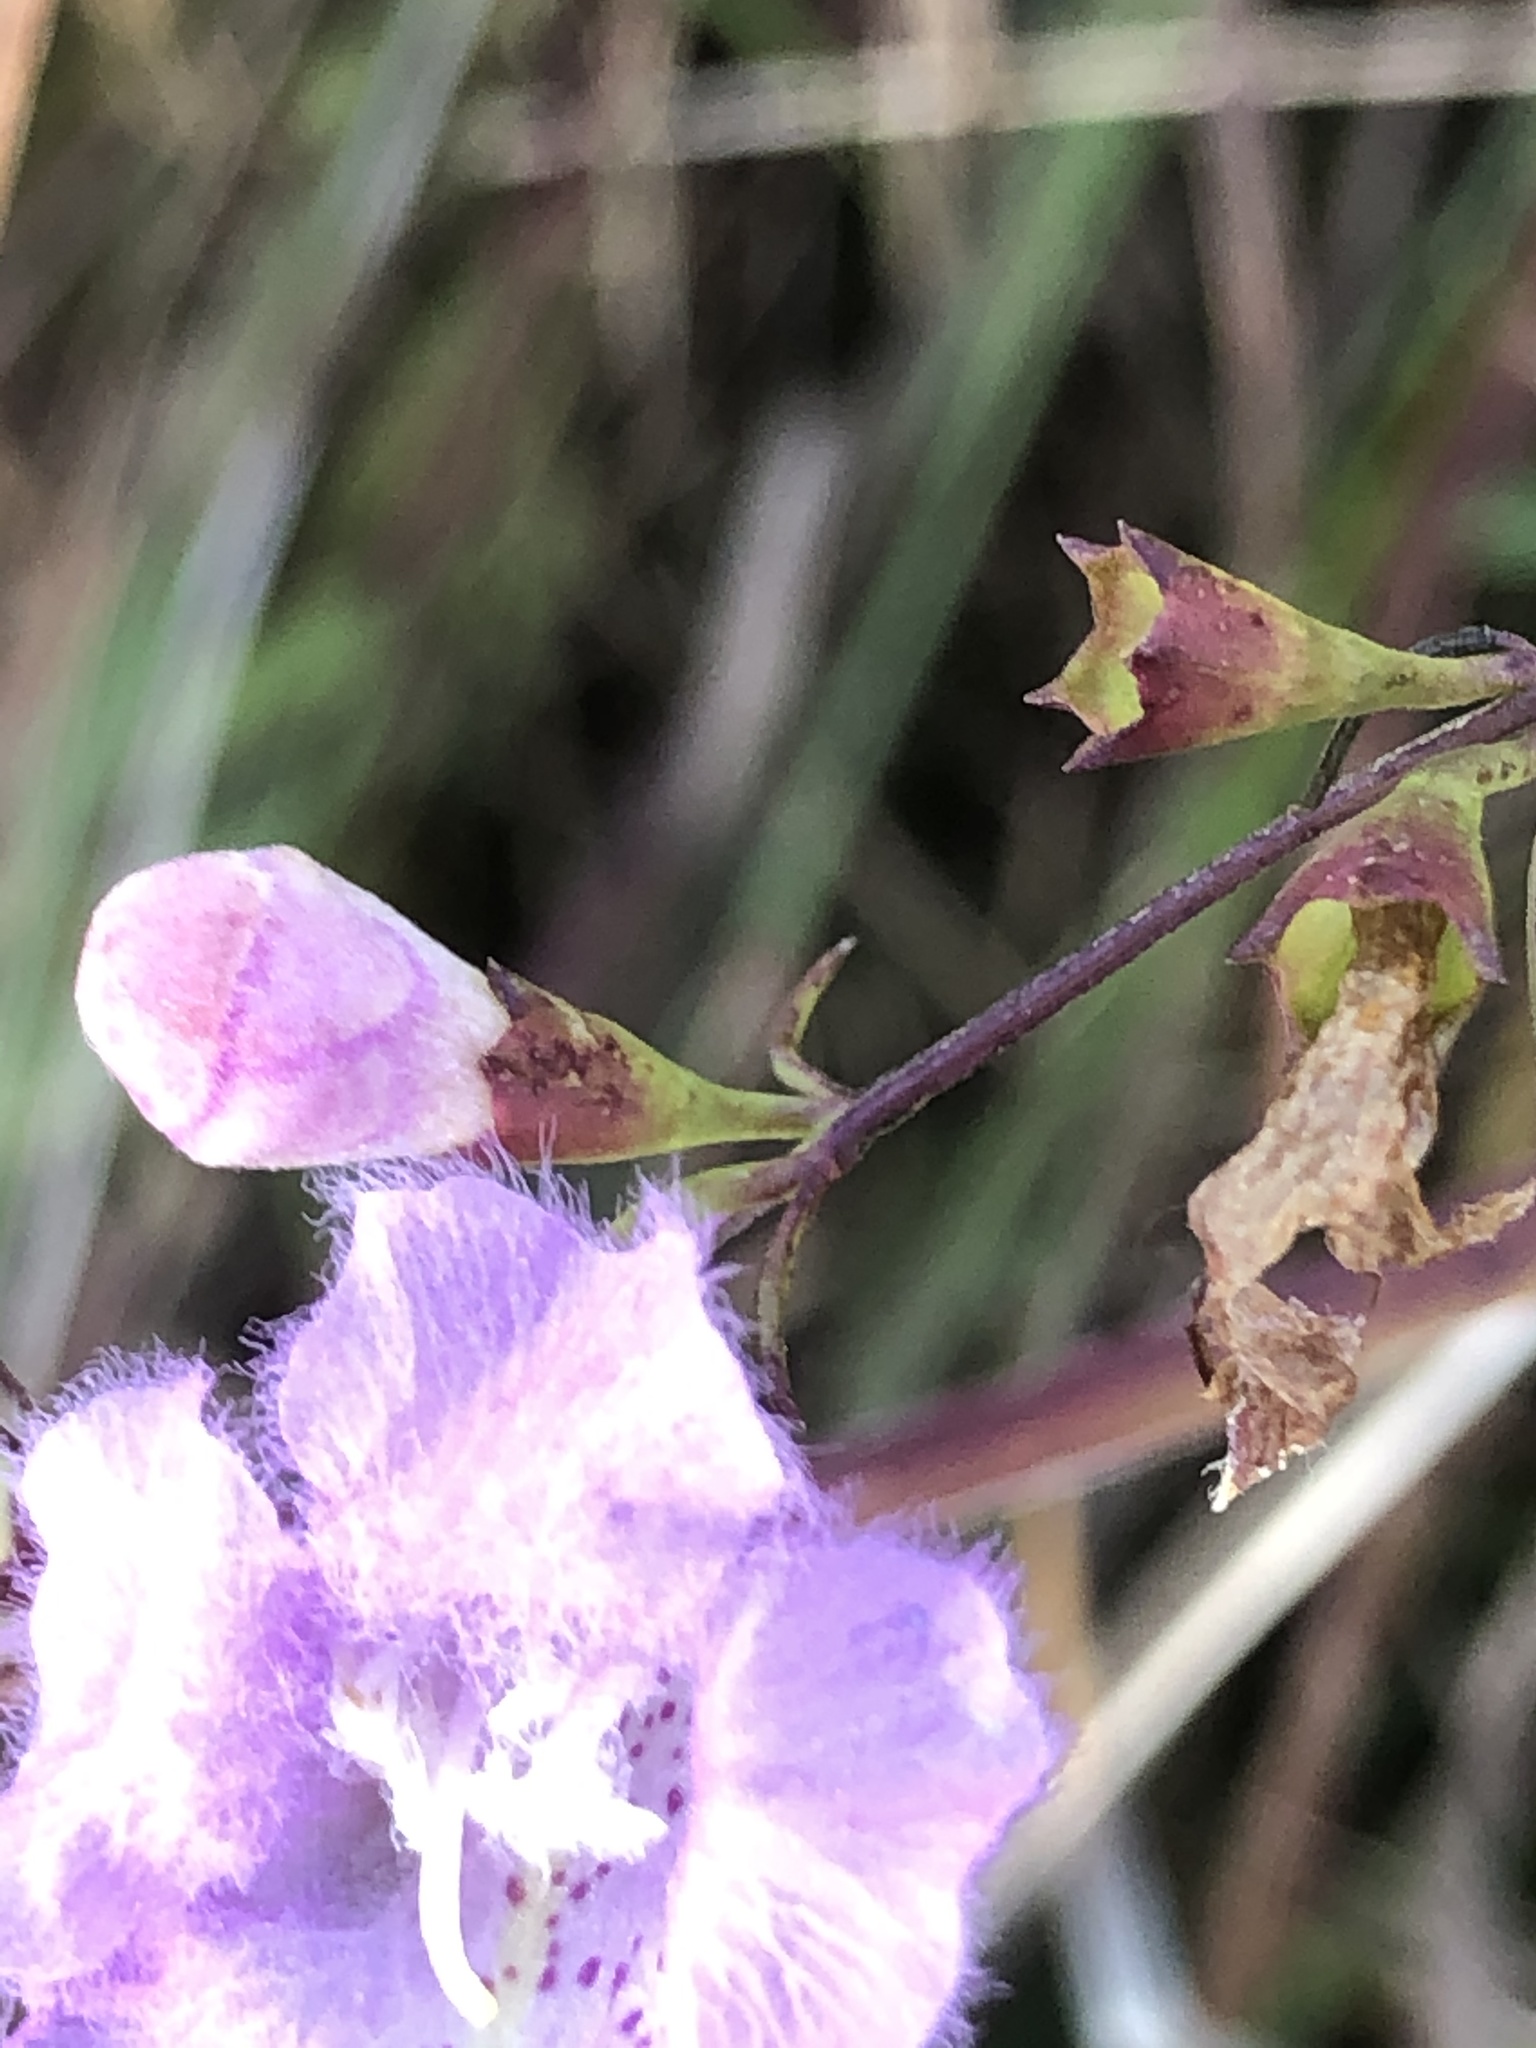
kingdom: Plantae
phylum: Tracheophyta
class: Magnoliopsida
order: Lamiales
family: Orobanchaceae
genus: Agalinis
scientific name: Agalinis purpurea
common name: Purple false foxglove
